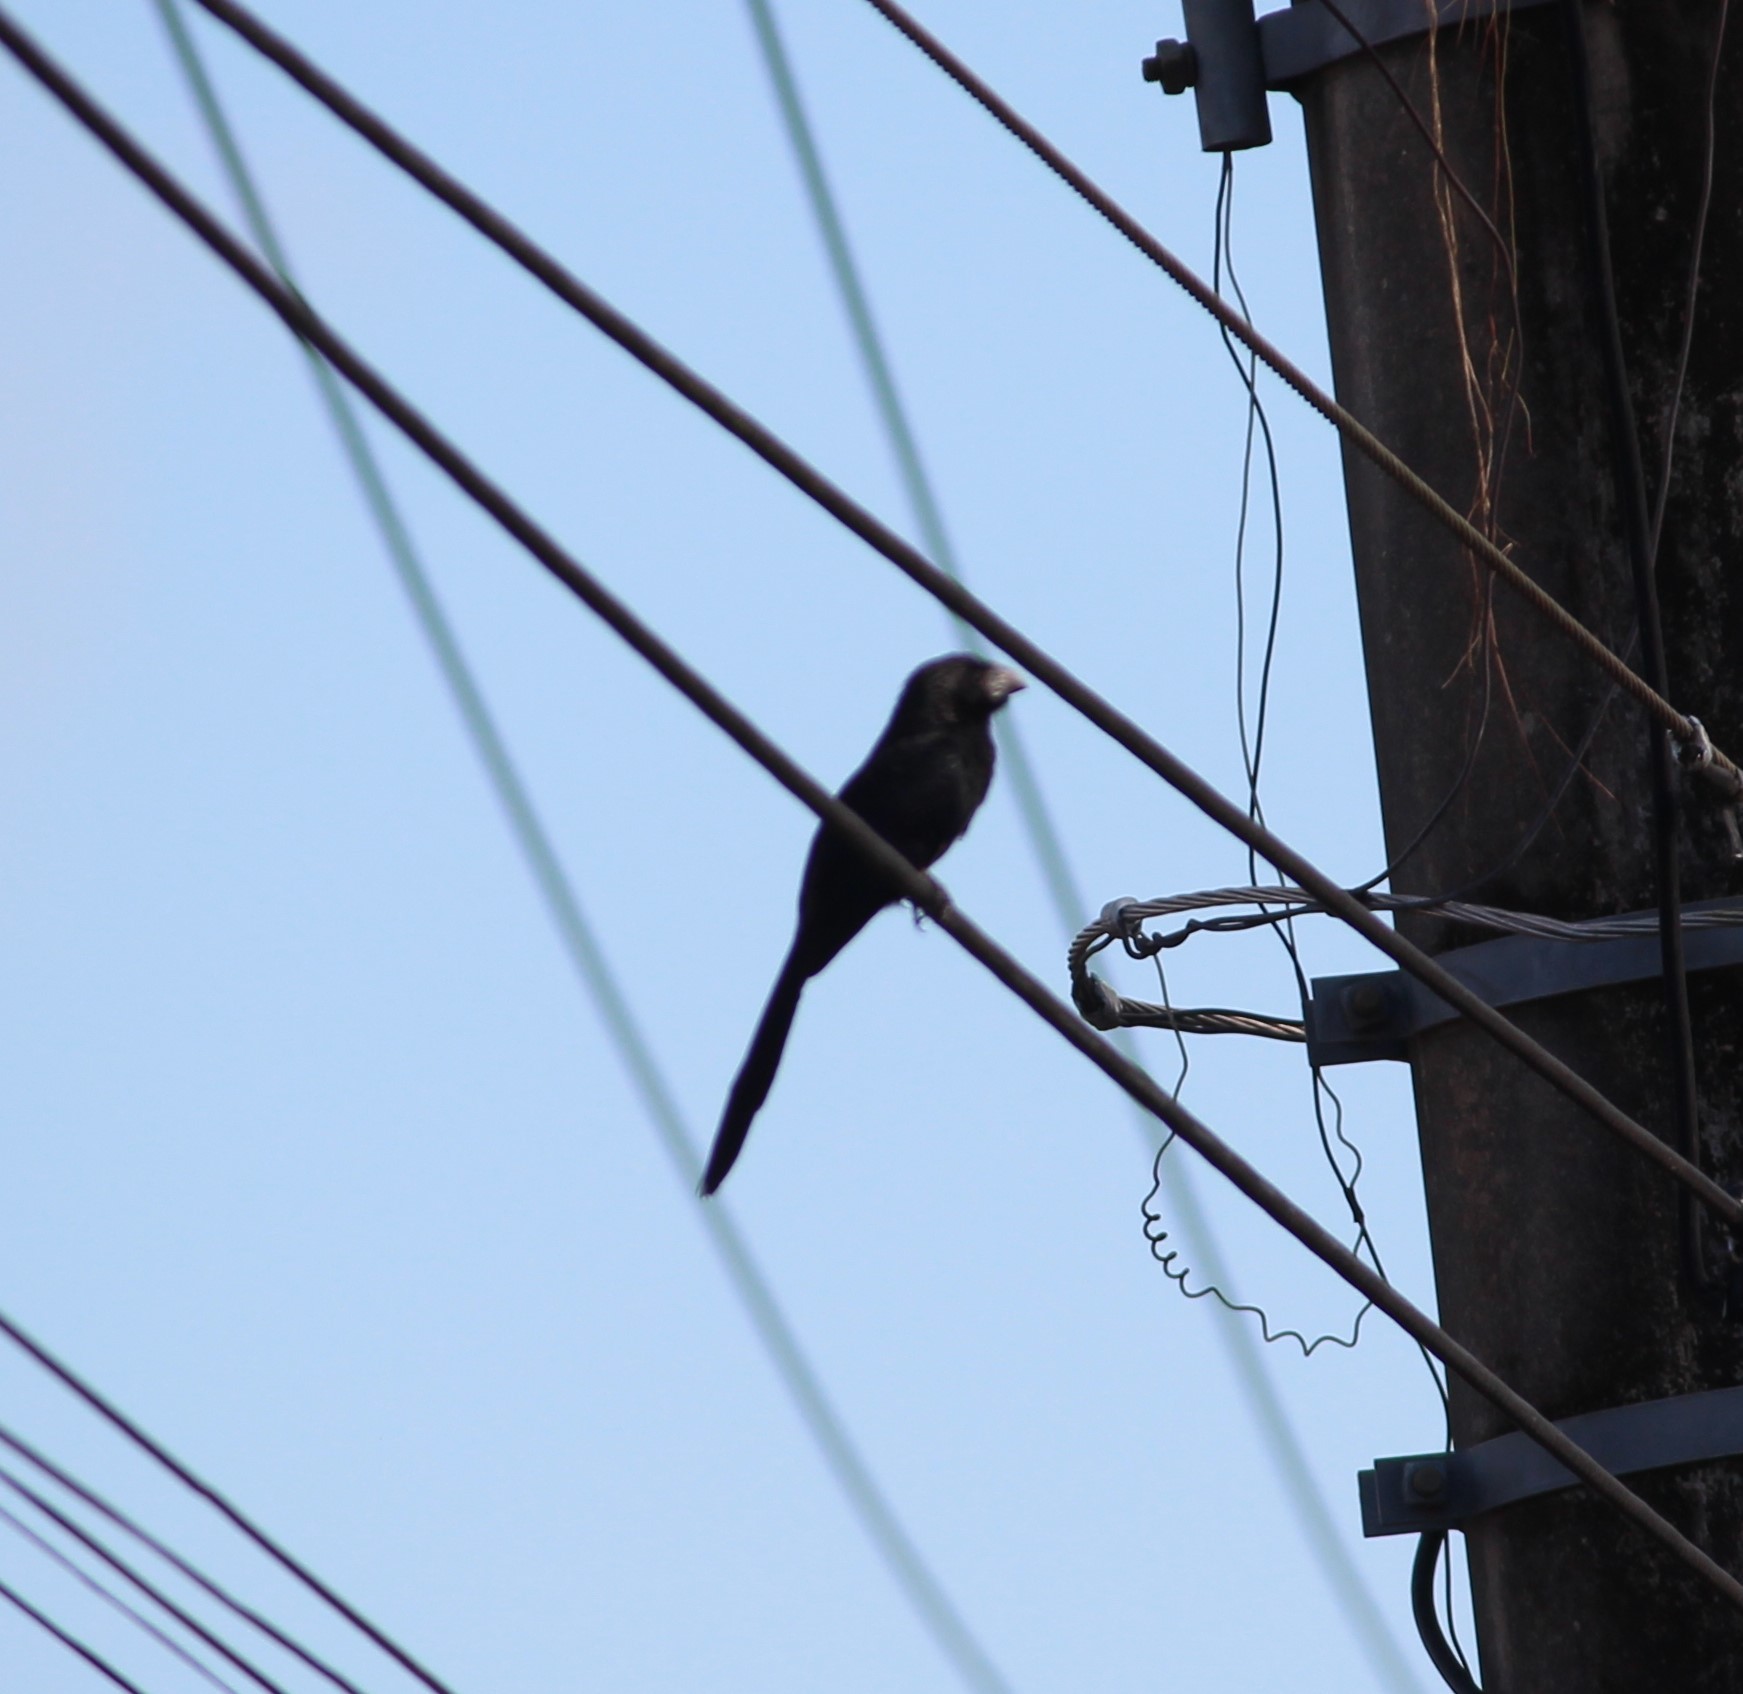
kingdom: Animalia
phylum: Chordata
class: Aves
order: Cuculiformes
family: Cuculidae
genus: Crotophaga
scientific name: Crotophaga sulcirostris
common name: Groove-billed ani
